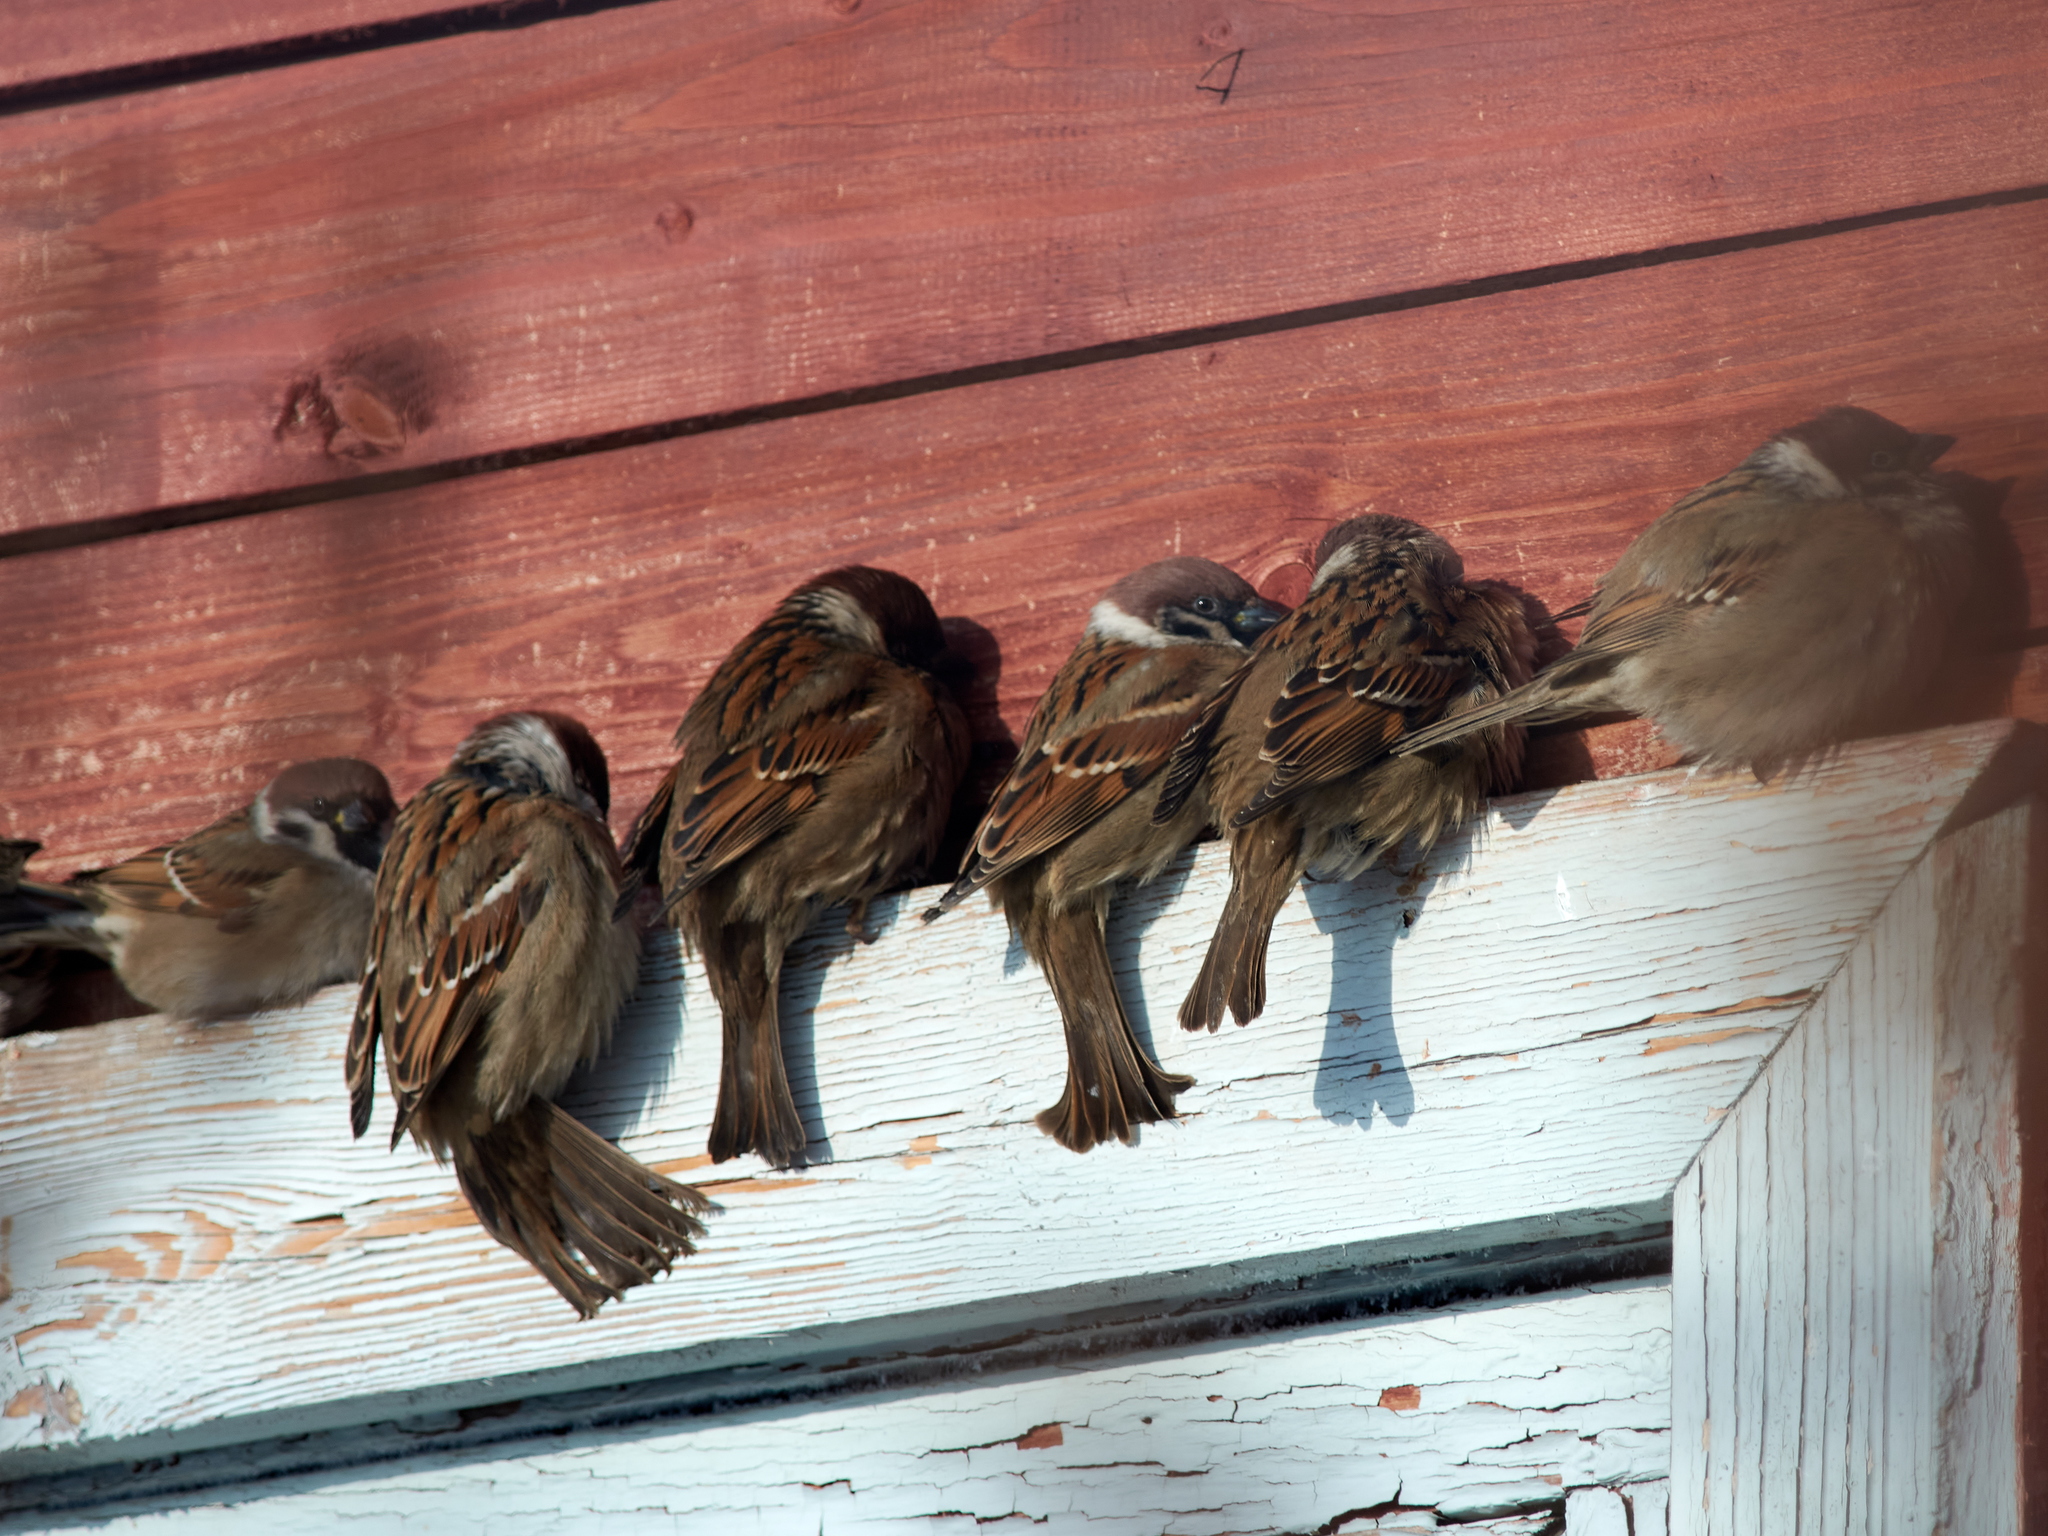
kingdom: Animalia
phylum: Chordata
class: Aves
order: Passeriformes
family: Passeridae
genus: Passer
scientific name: Passer montanus
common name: Eurasian tree sparrow
